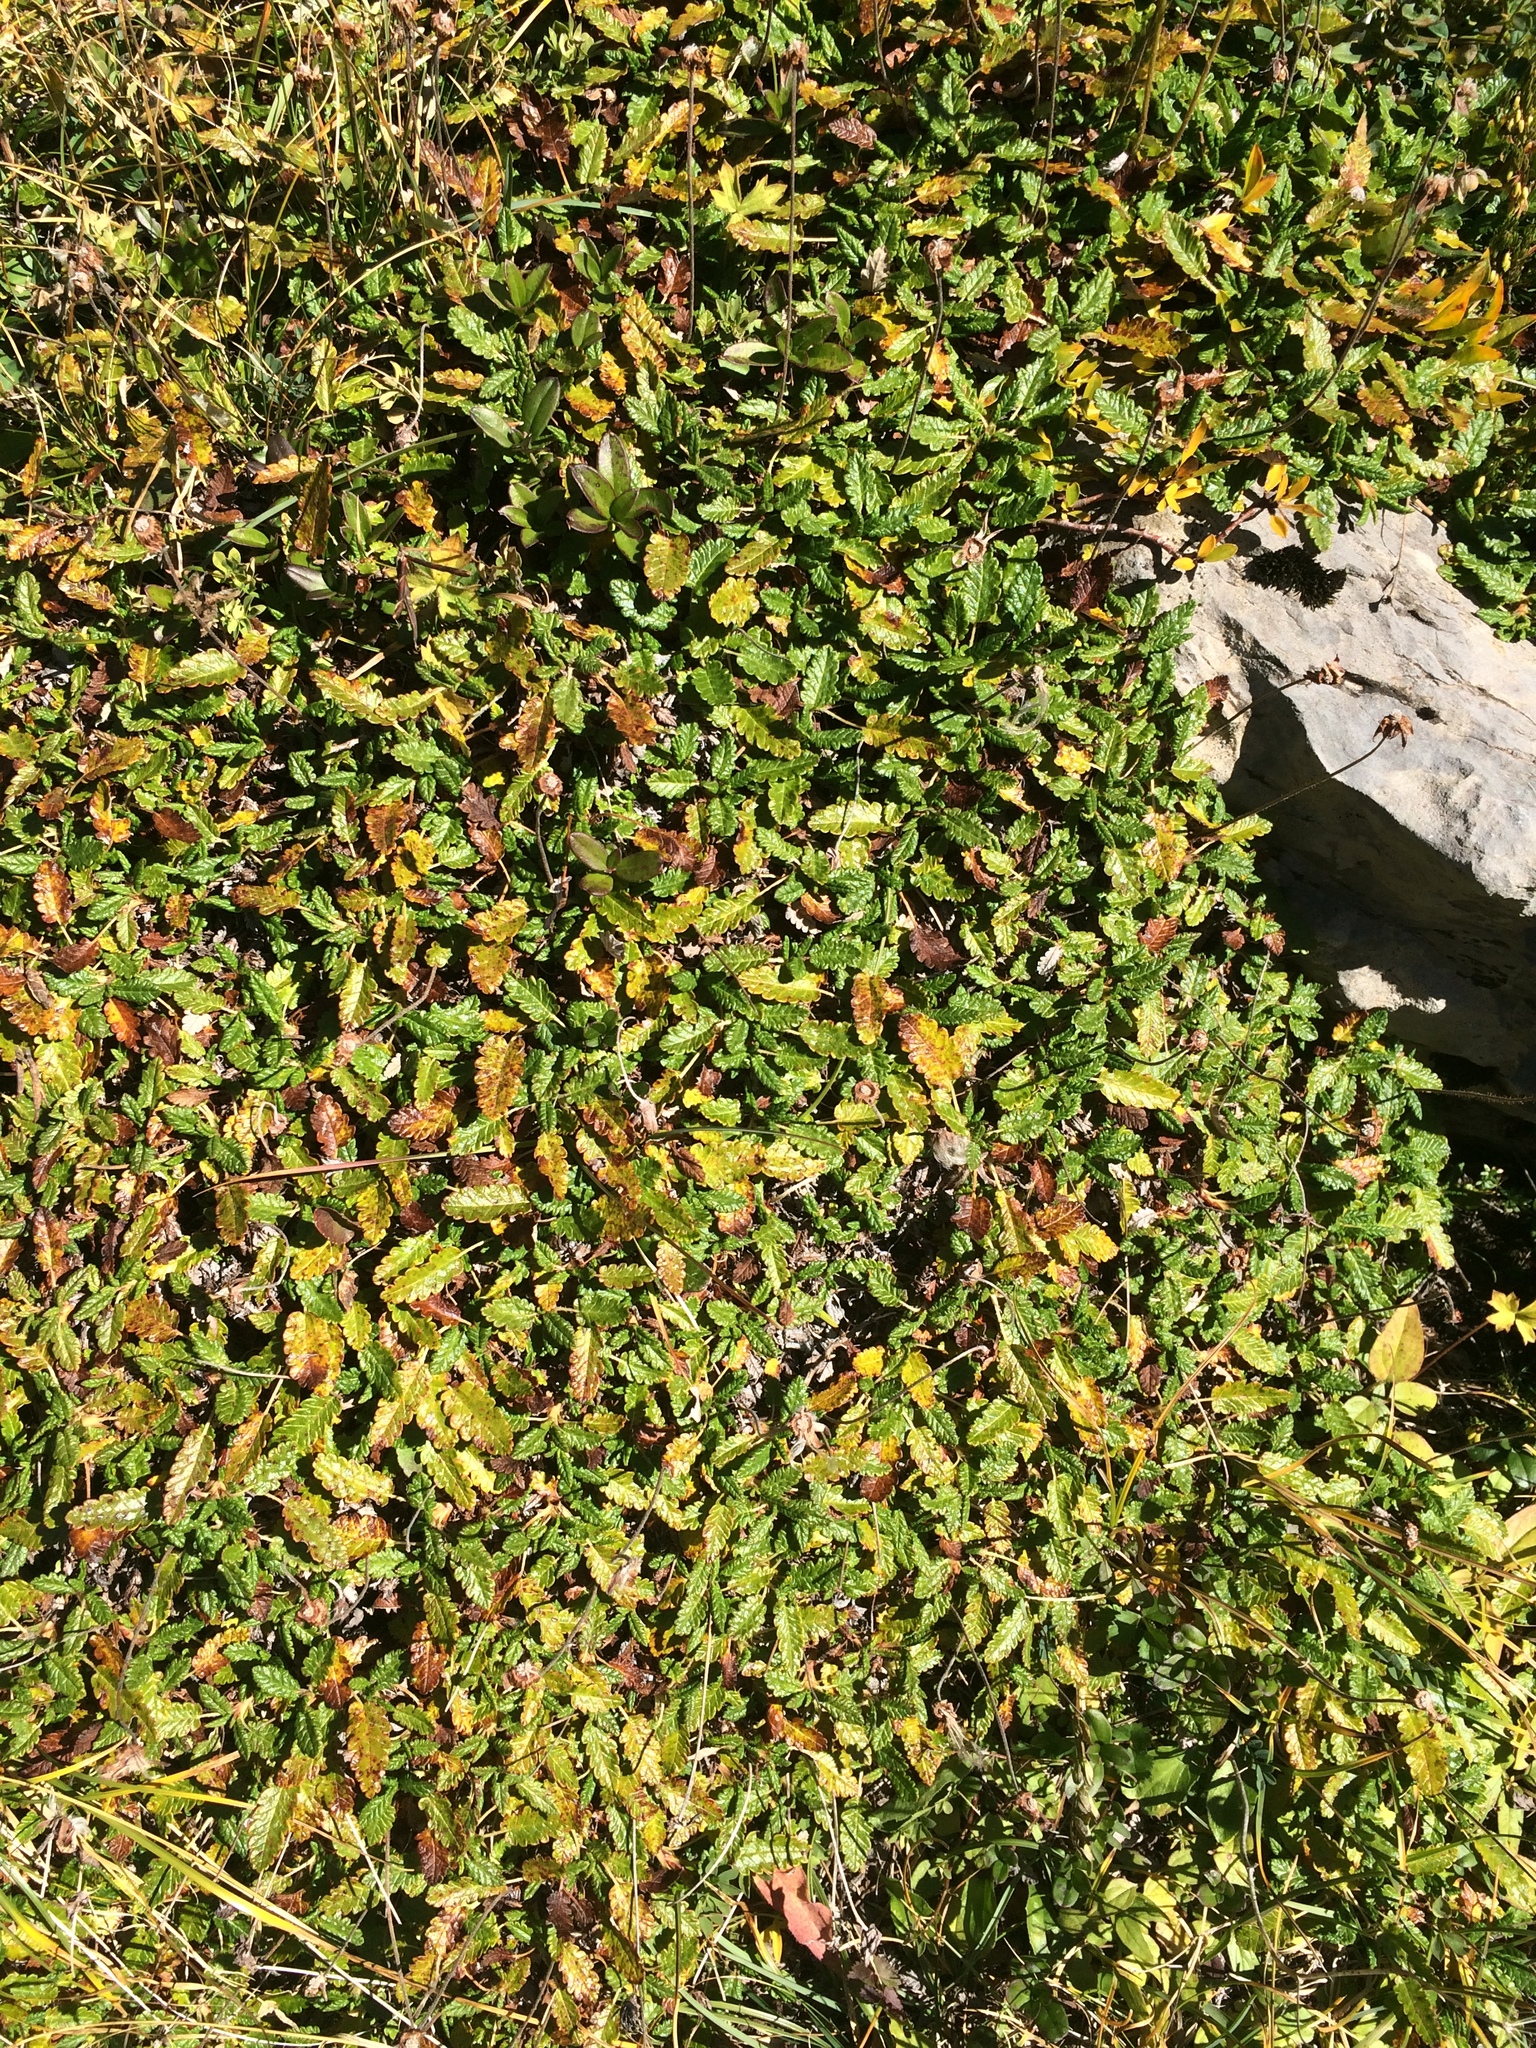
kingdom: Plantae
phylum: Tracheophyta
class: Magnoliopsida
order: Rosales
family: Rosaceae
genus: Dryas
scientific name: Dryas octopetala
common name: Eight-petal mountain-avens
